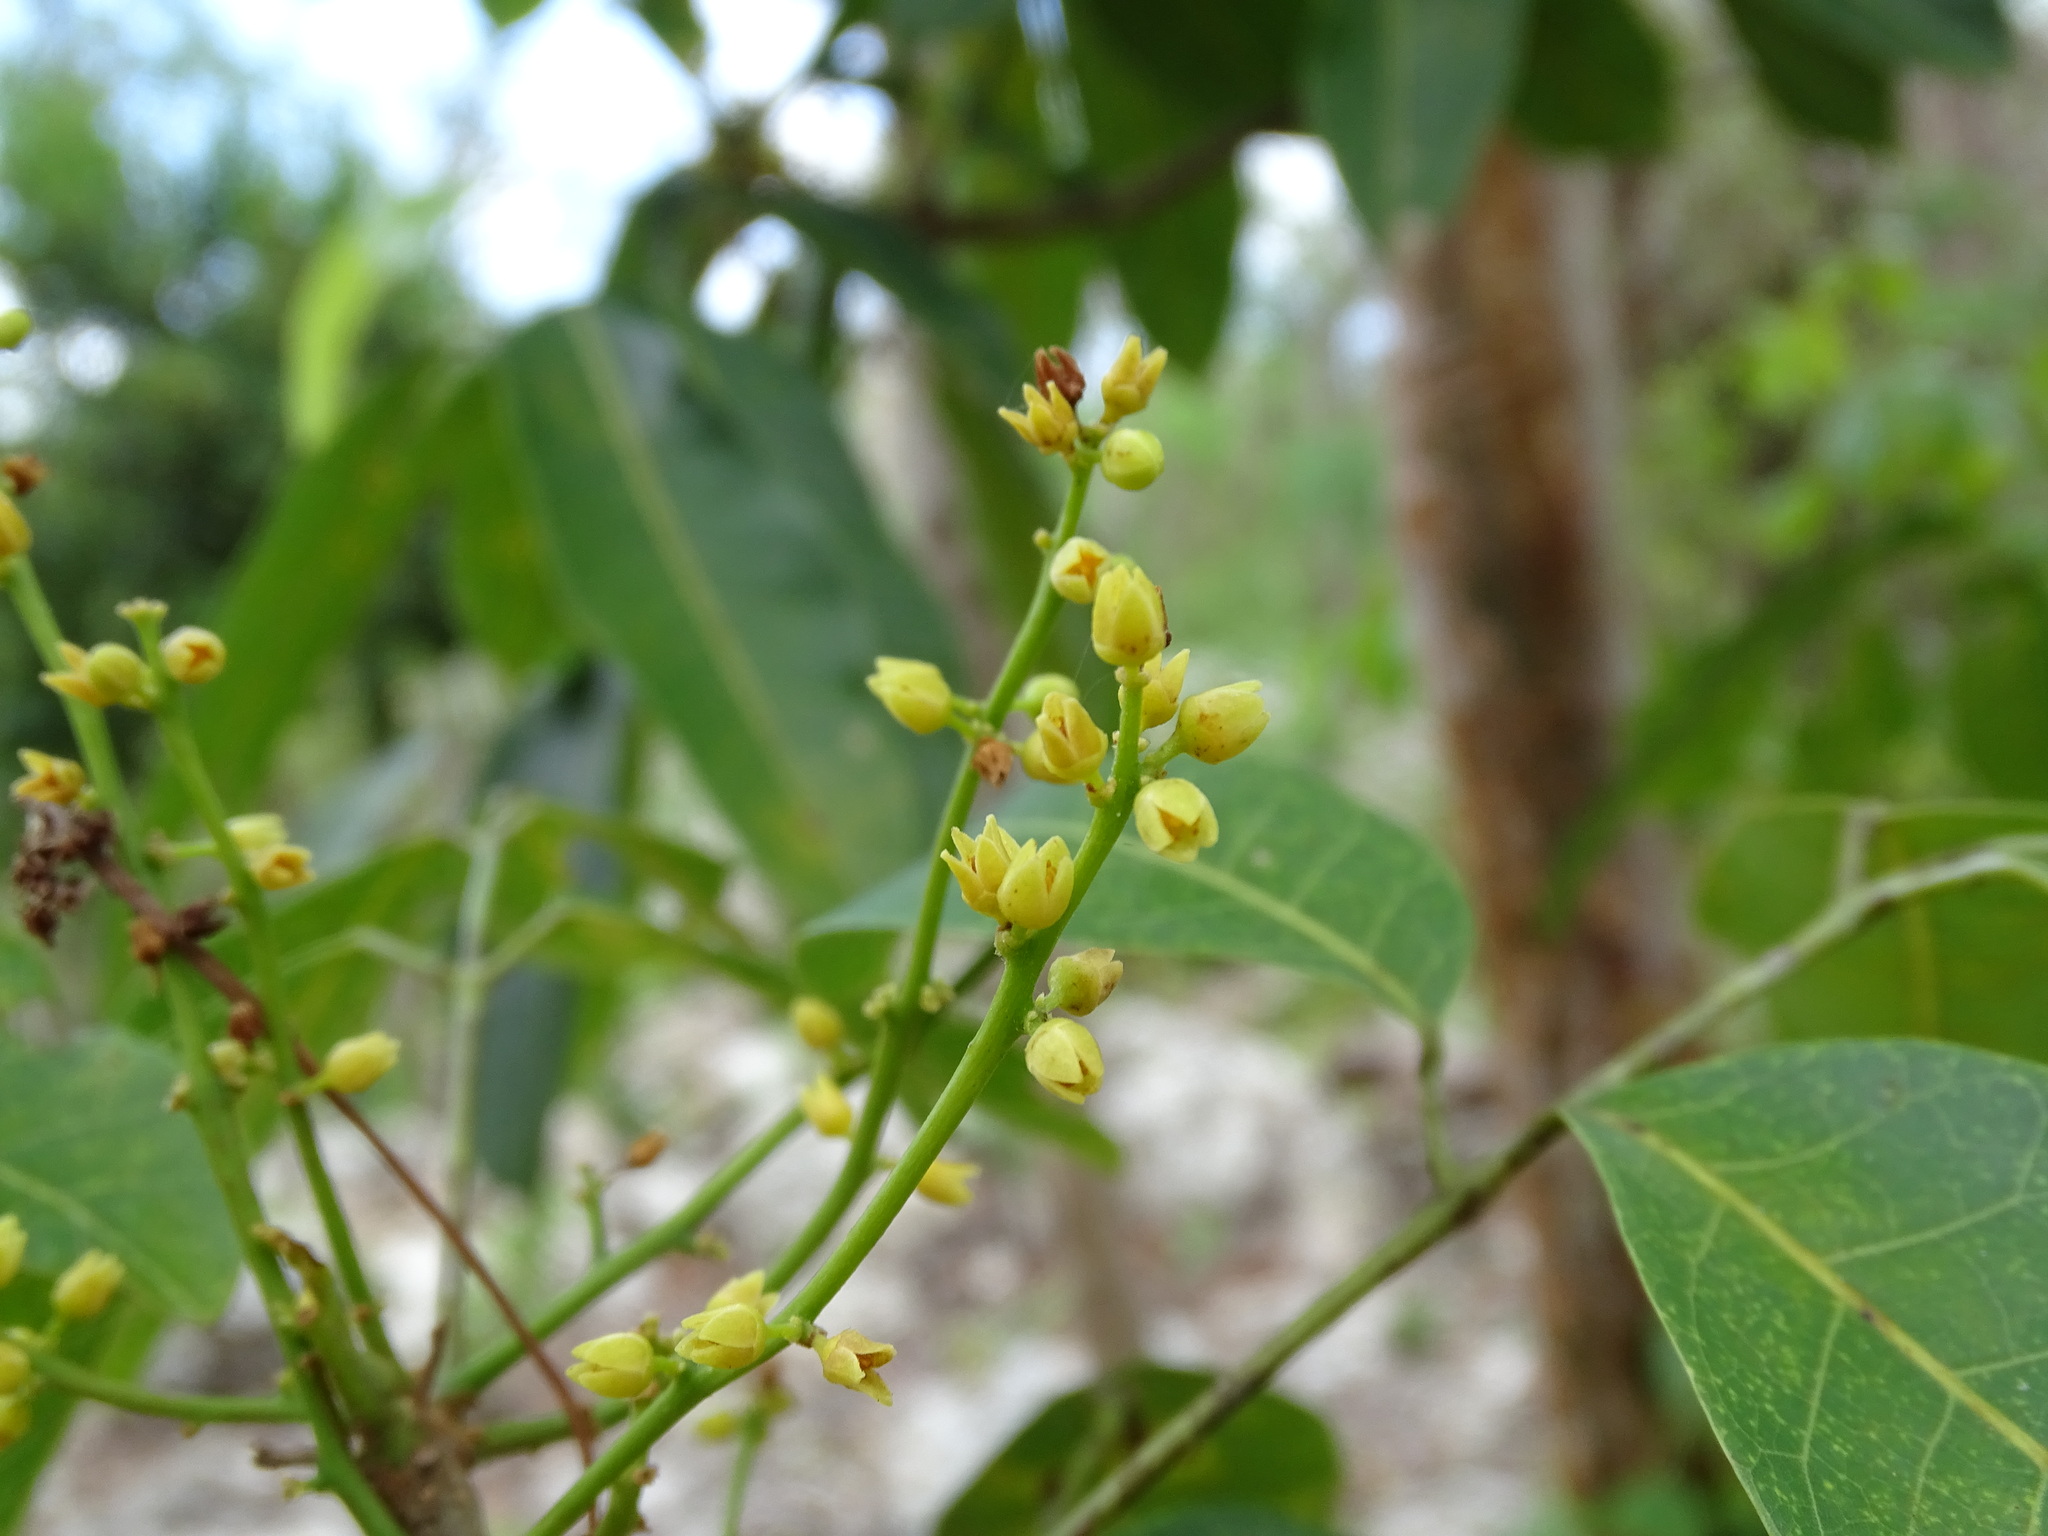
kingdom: Plantae
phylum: Tracheophyta
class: Magnoliopsida
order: Sapindales
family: Burseraceae
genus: Protium
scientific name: Protium copal
